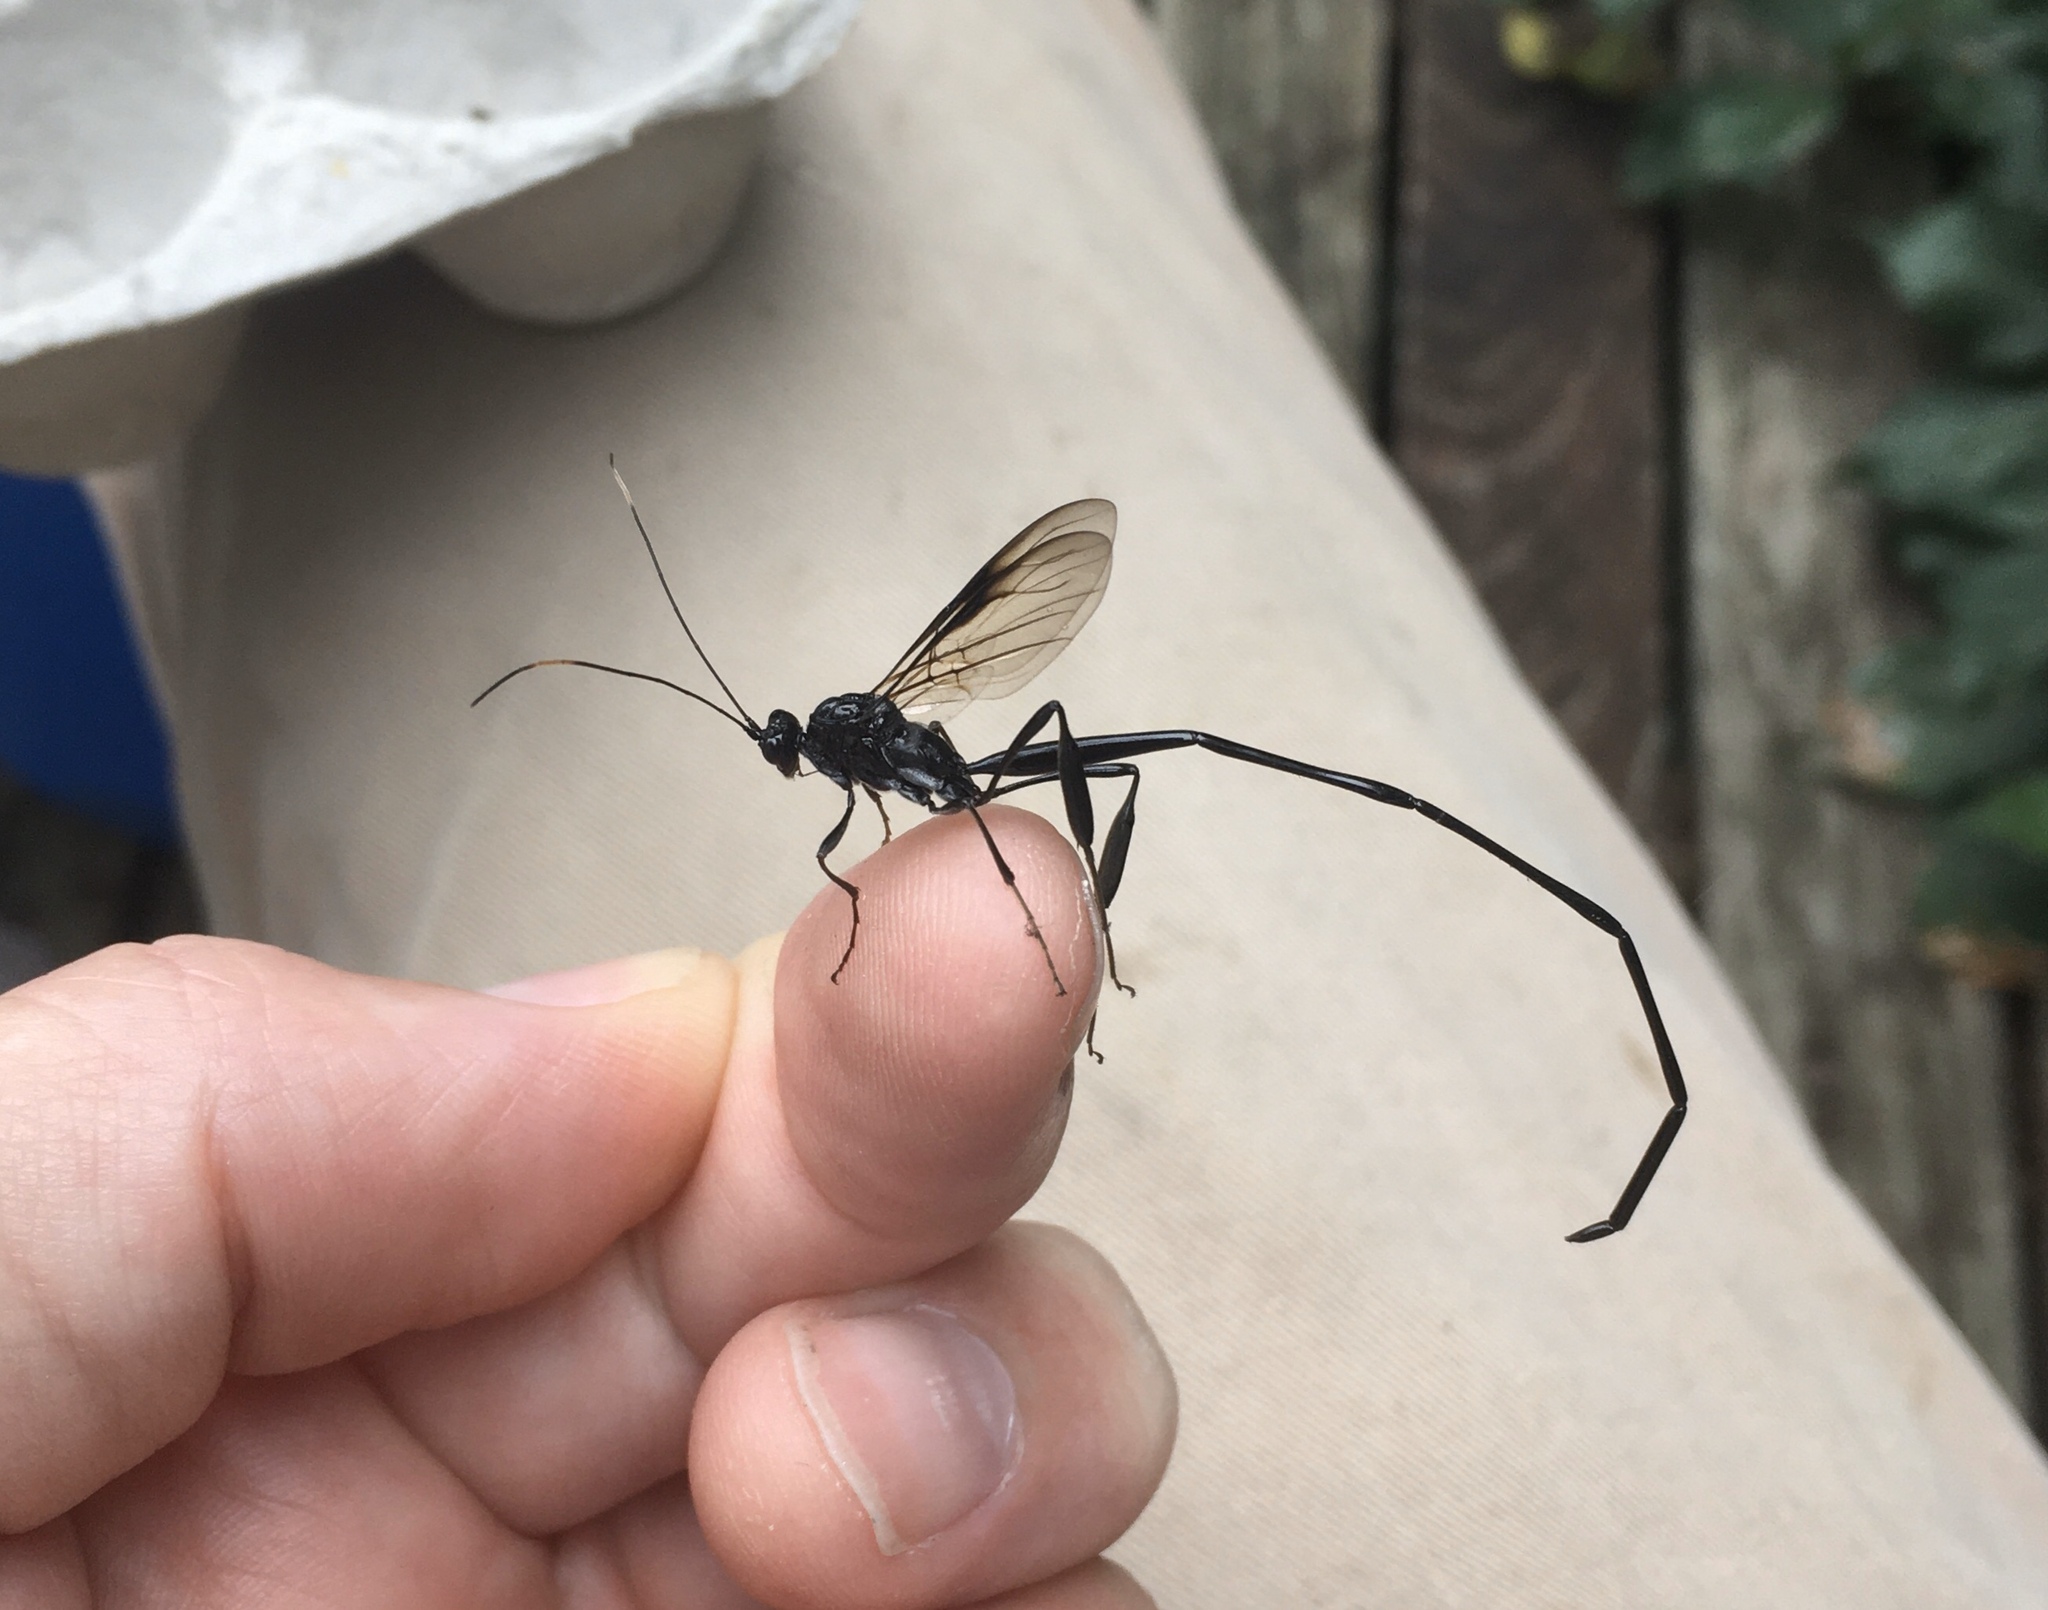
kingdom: Animalia
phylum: Arthropoda
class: Insecta
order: Hymenoptera
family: Pelecinidae
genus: Pelecinus
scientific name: Pelecinus polyturator
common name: American pelecinid wasp
